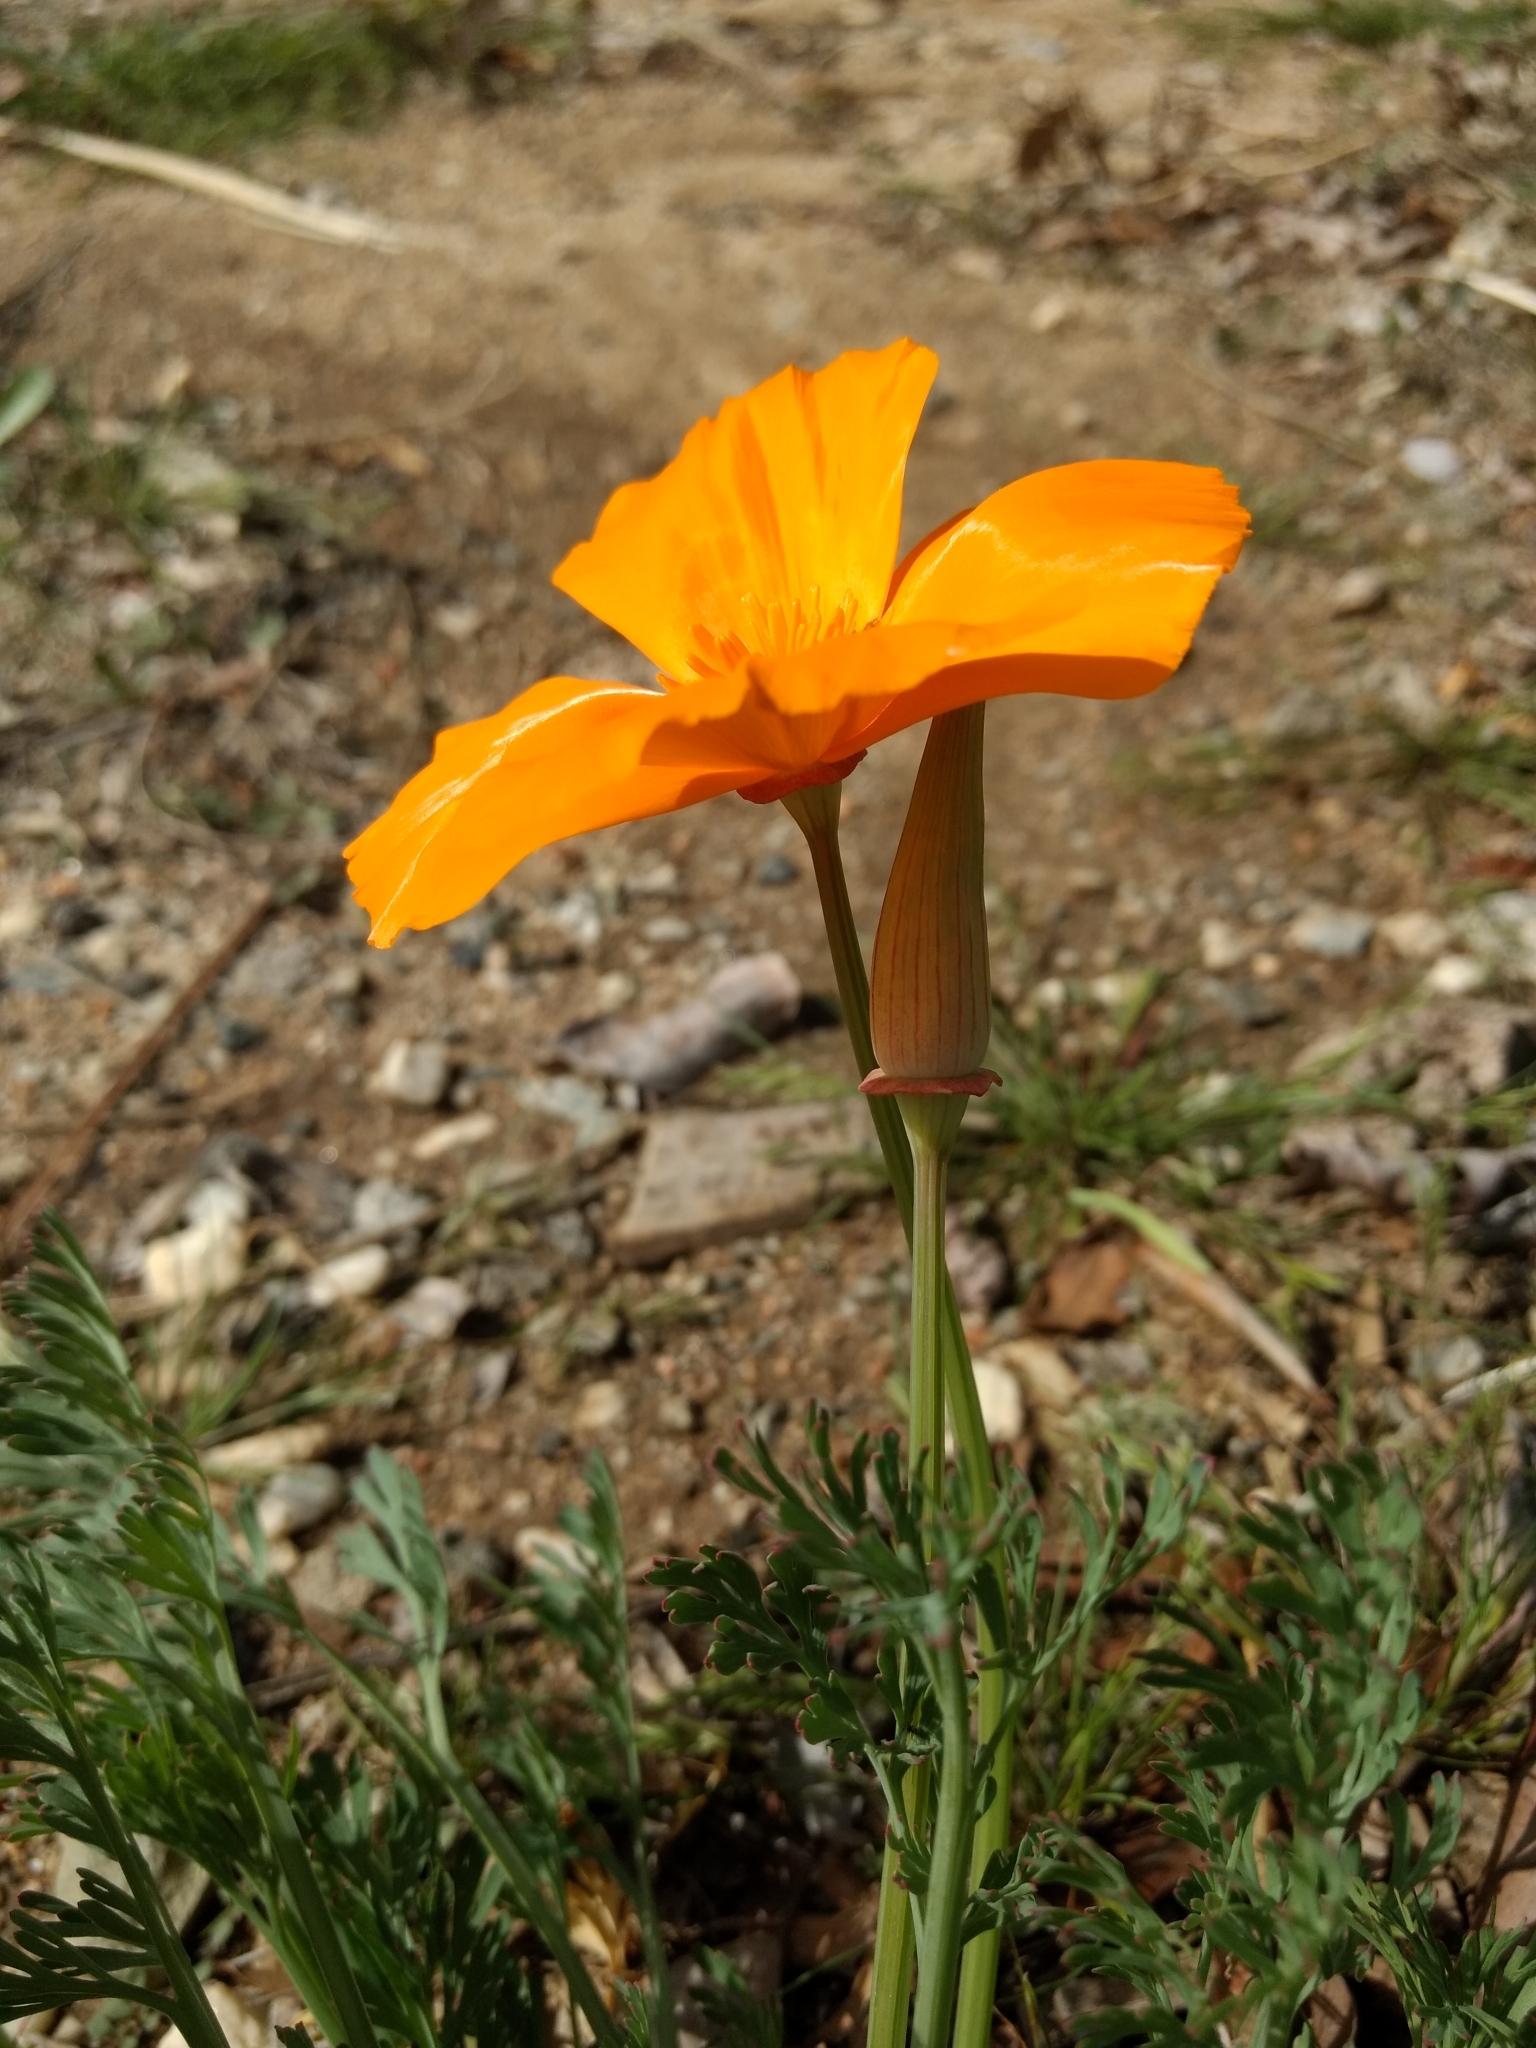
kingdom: Plantae
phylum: Tracheophyta
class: Magnoliopsida
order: Ranunculales
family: Papaveraceae
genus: Eschscholzia
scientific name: Eschscholzia californica
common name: California poppy
